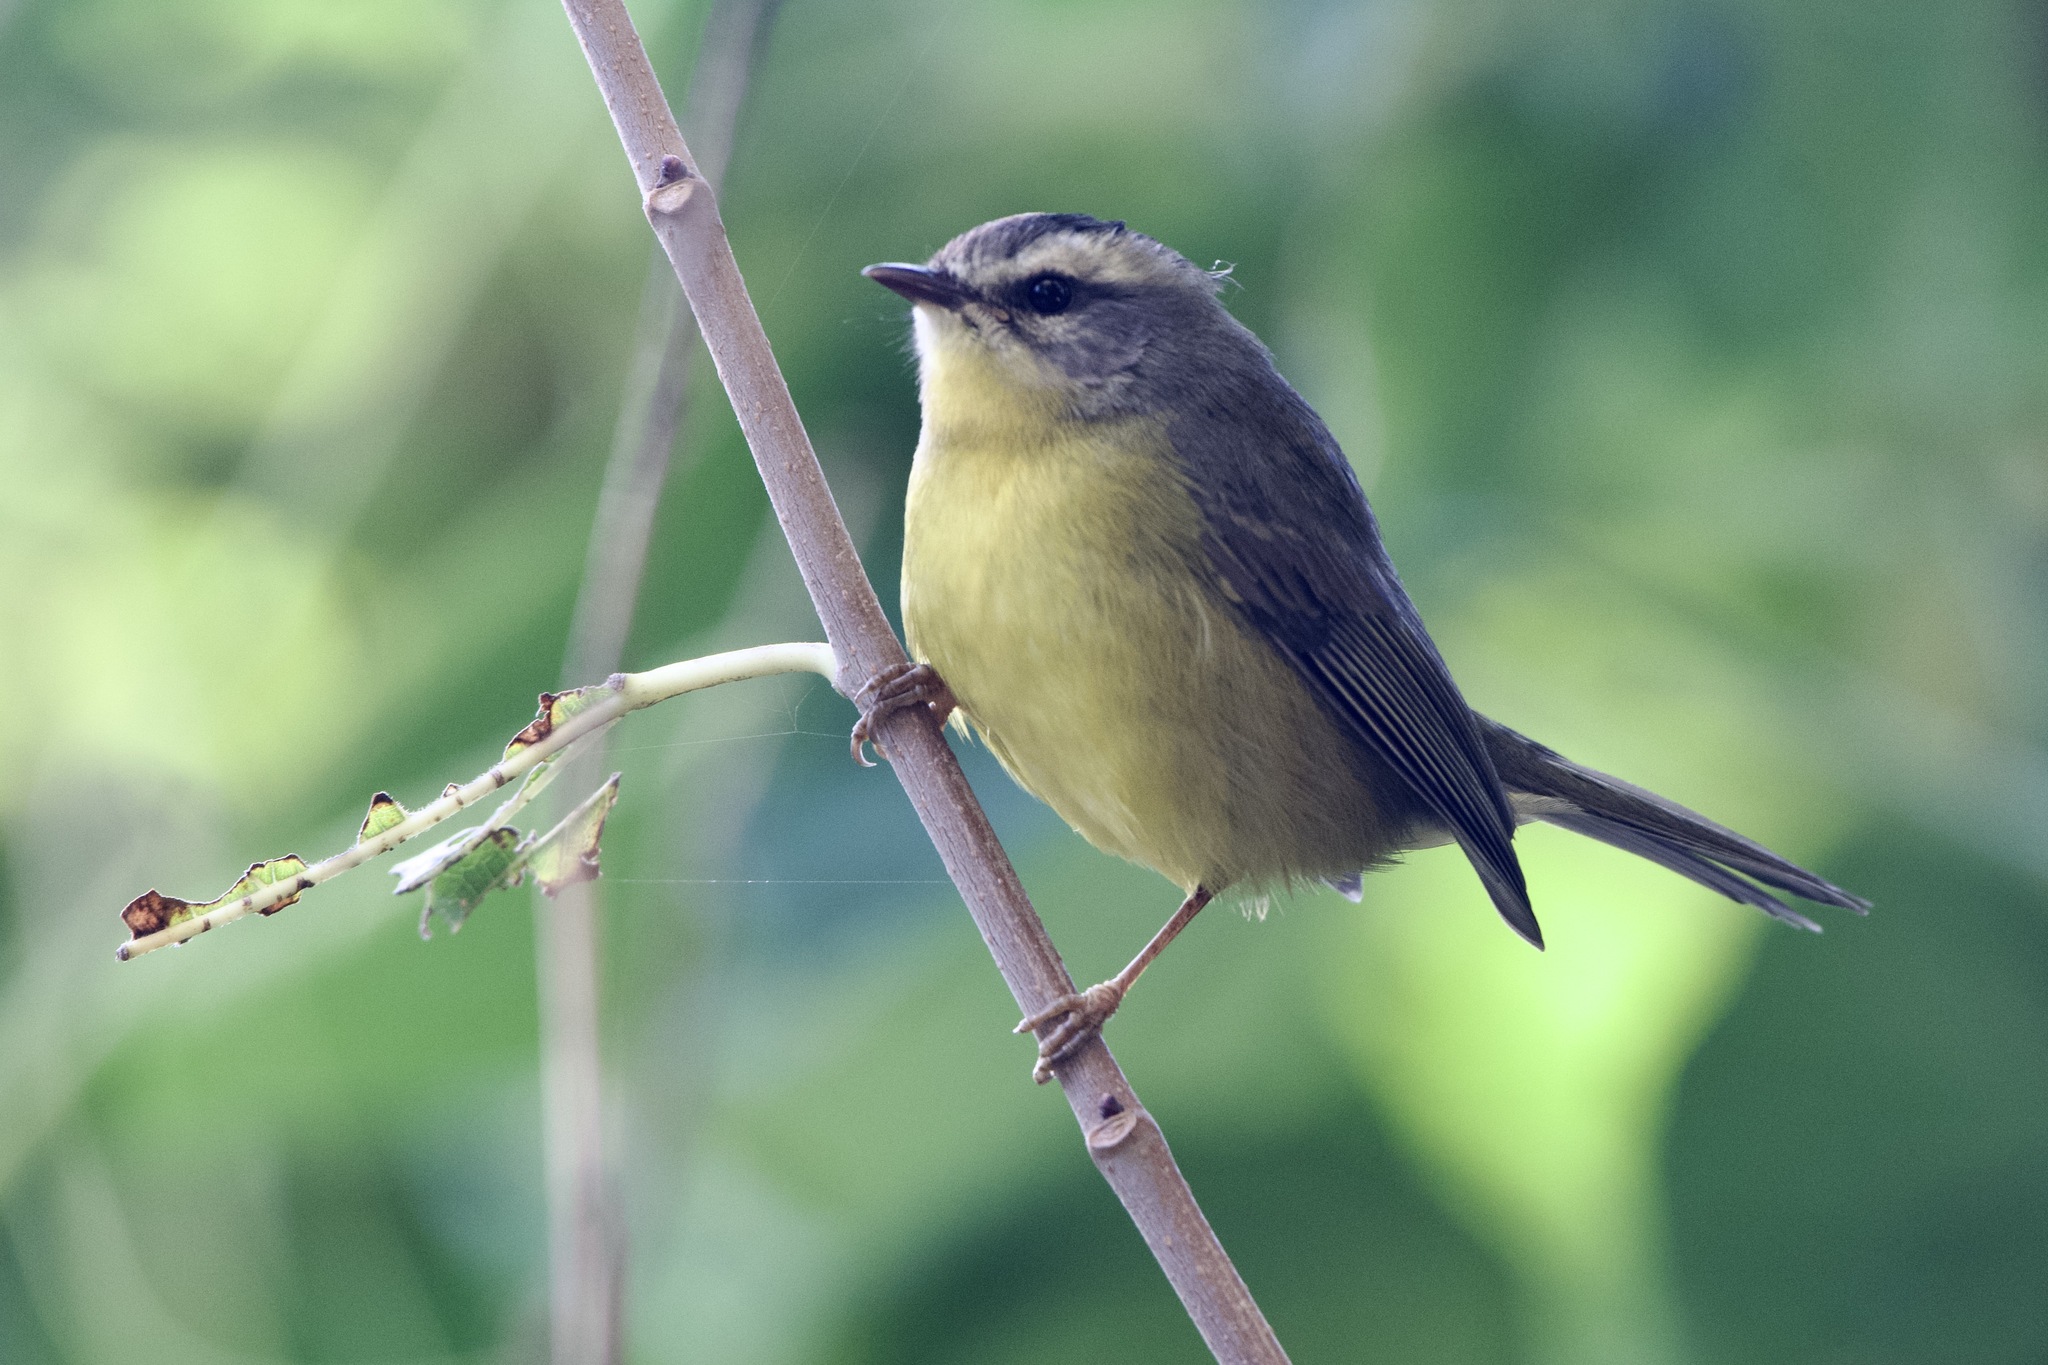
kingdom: Animalia
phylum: Chordata
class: Aves
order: Passeriformes
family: Parulidae
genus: Basileuterus
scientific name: Basileuterus culicivorus
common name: Golden-crowned warbler
